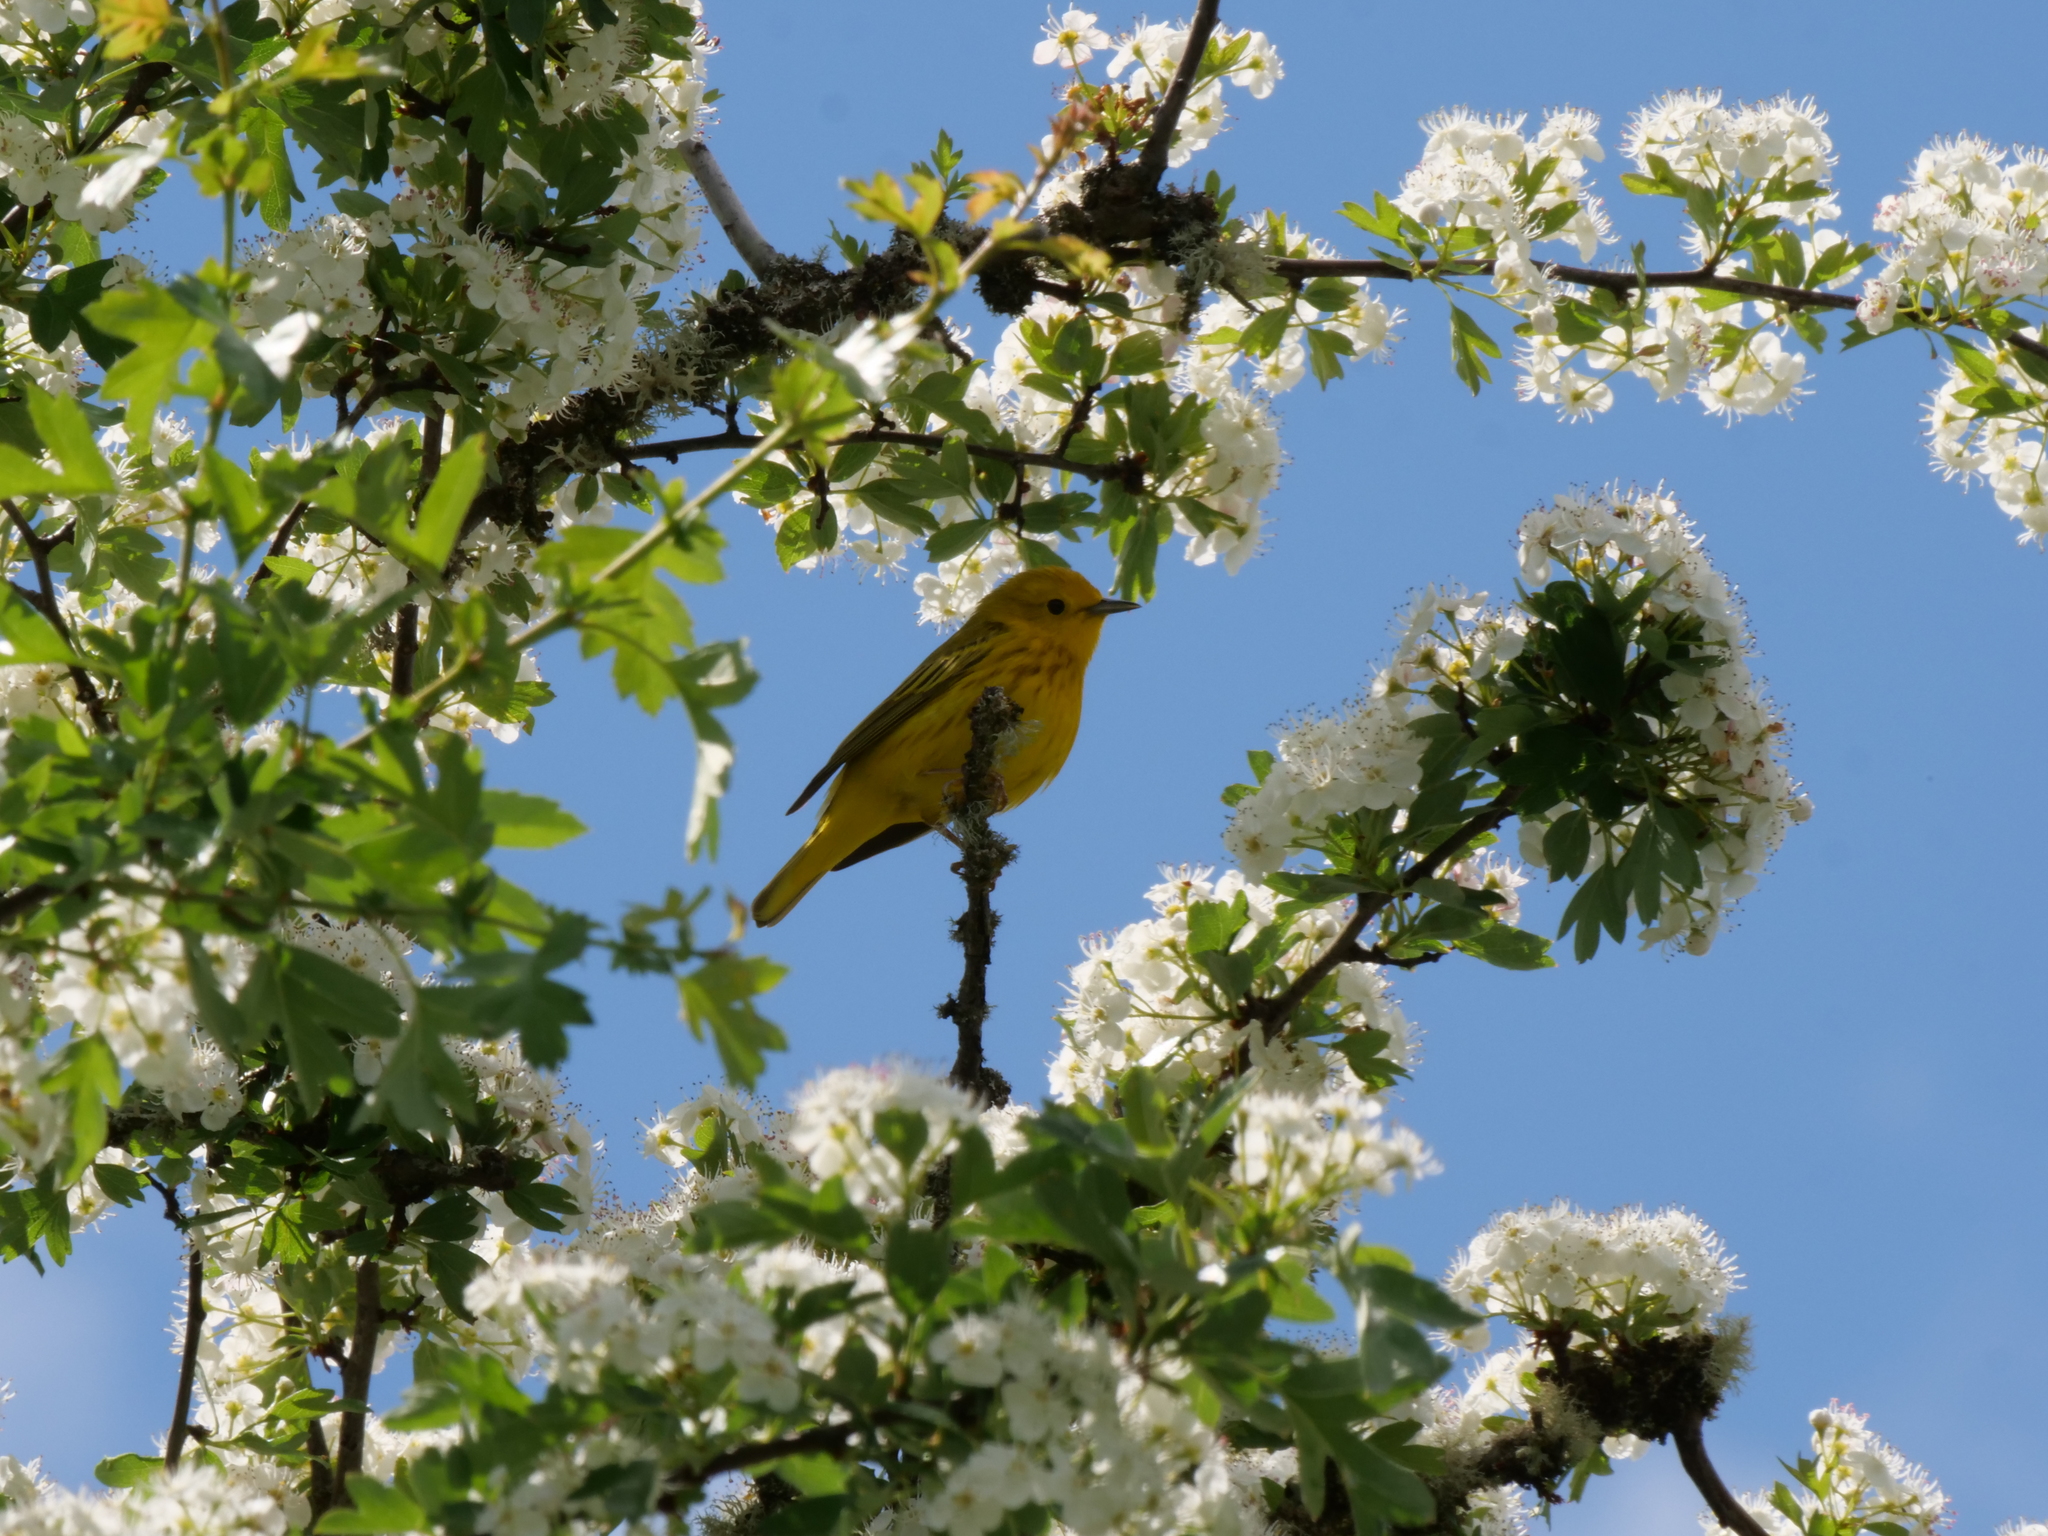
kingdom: Animalia
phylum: Chordata
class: Aves
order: Passeriformes
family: Parulidae
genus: Setophaga
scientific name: Setophaga petechia
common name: Yellow warbler
